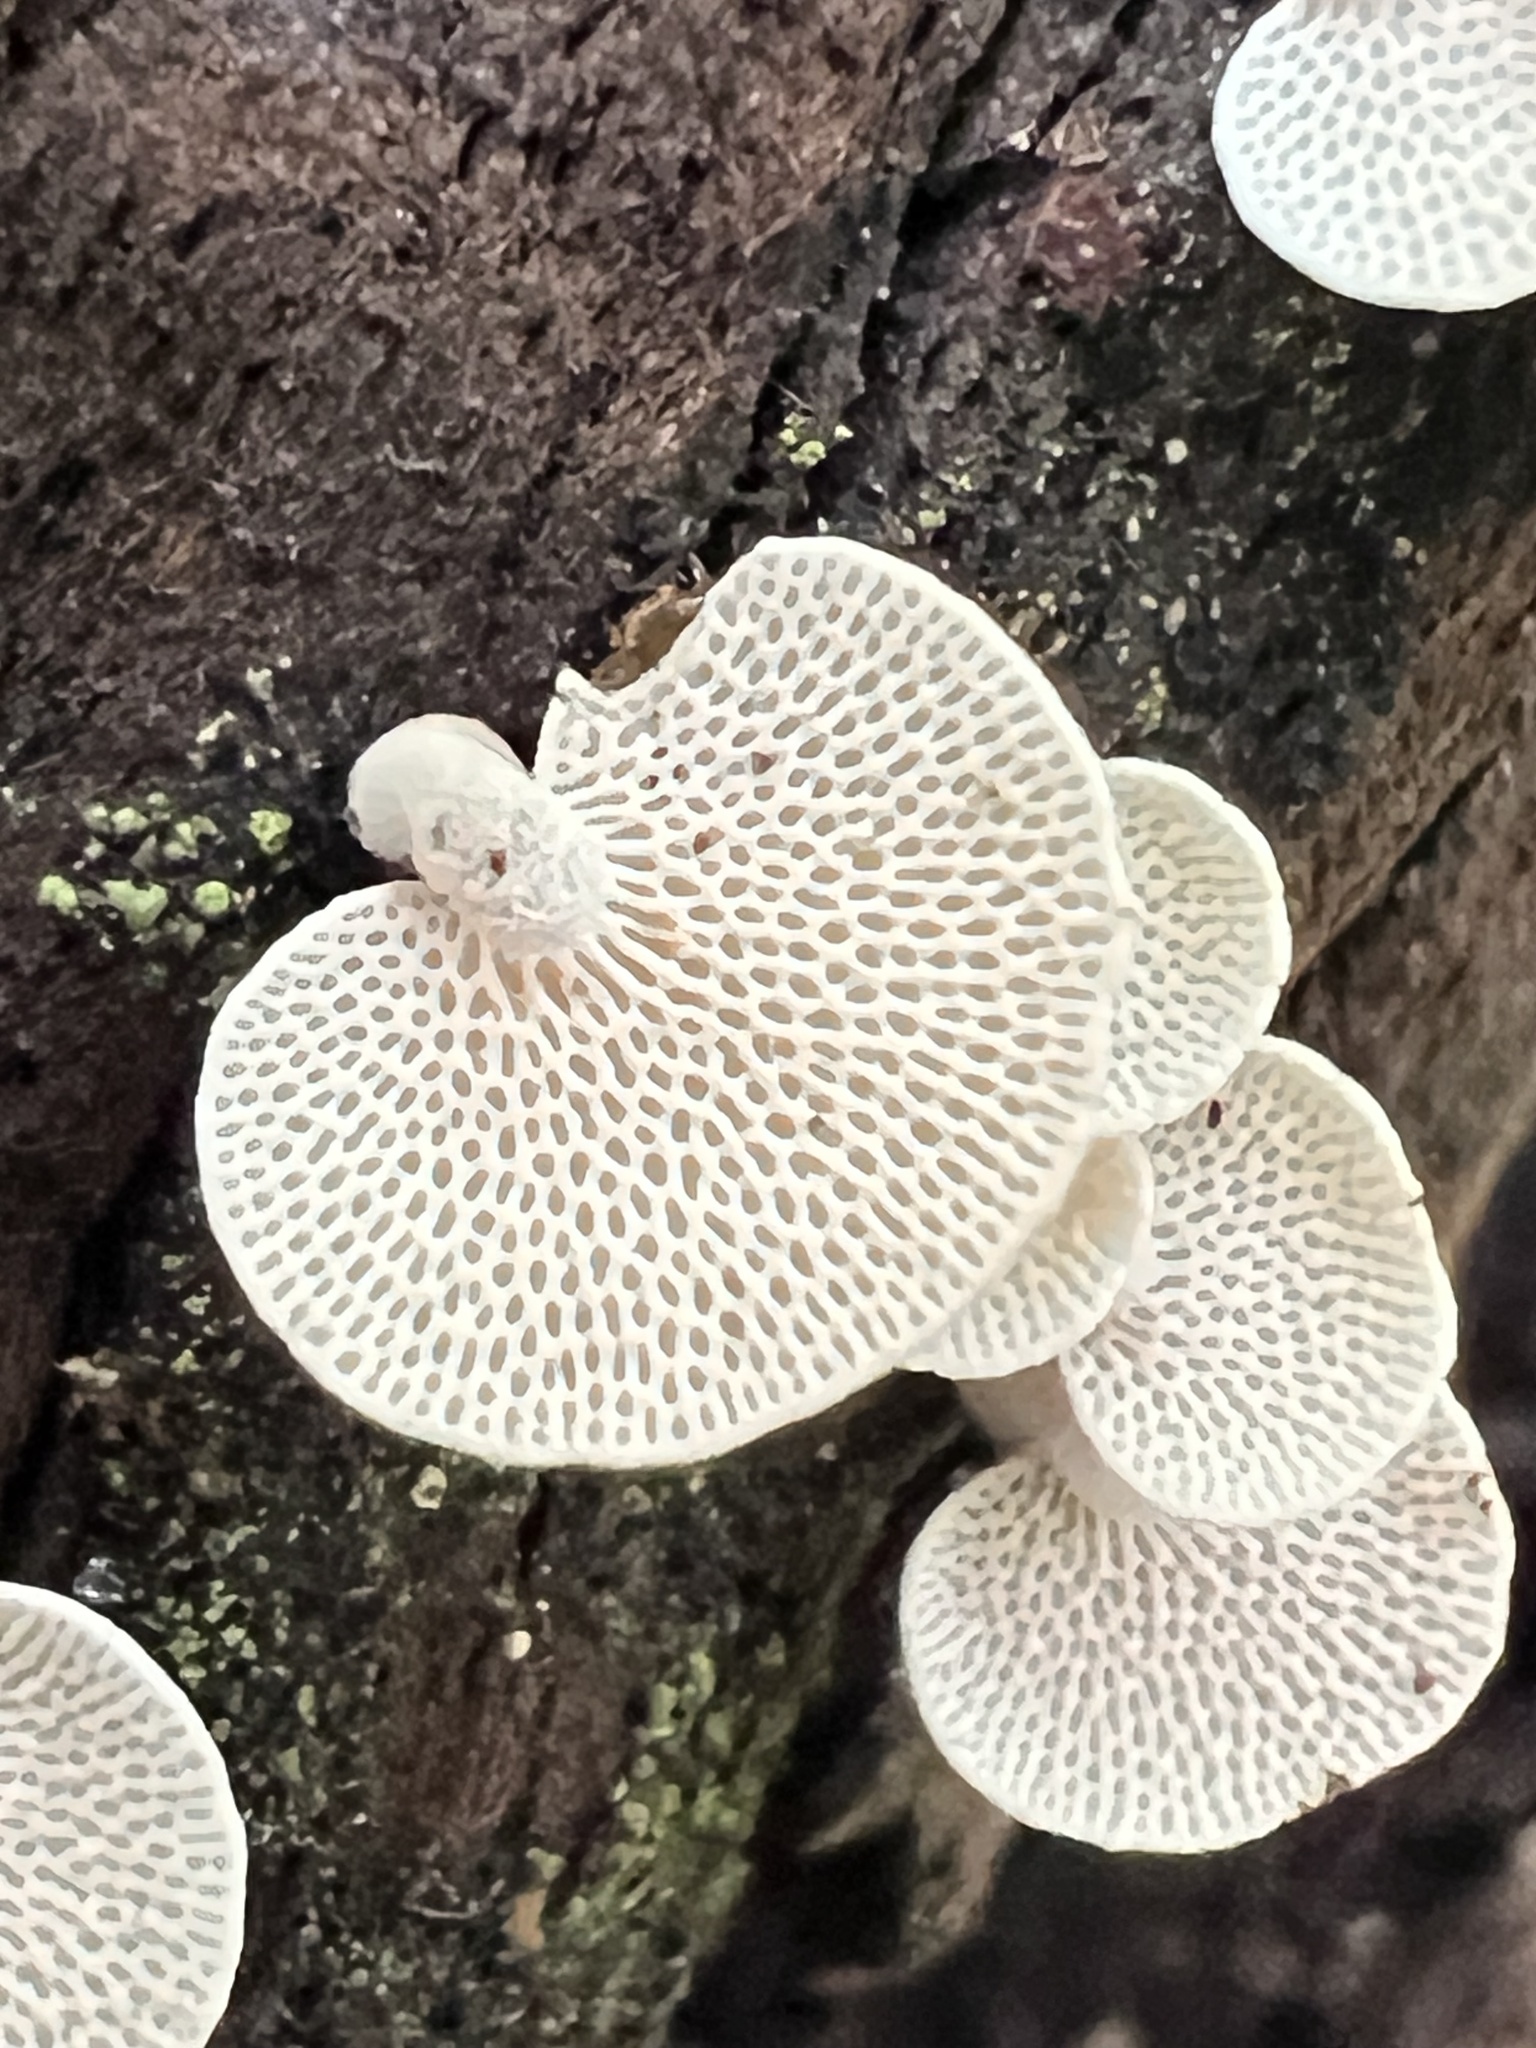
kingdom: Fungi
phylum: Basidiomycota
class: Agaricomycetes
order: Agaricales
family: Mycenaceae
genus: Panellus
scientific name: Panellus luxfilamentus
